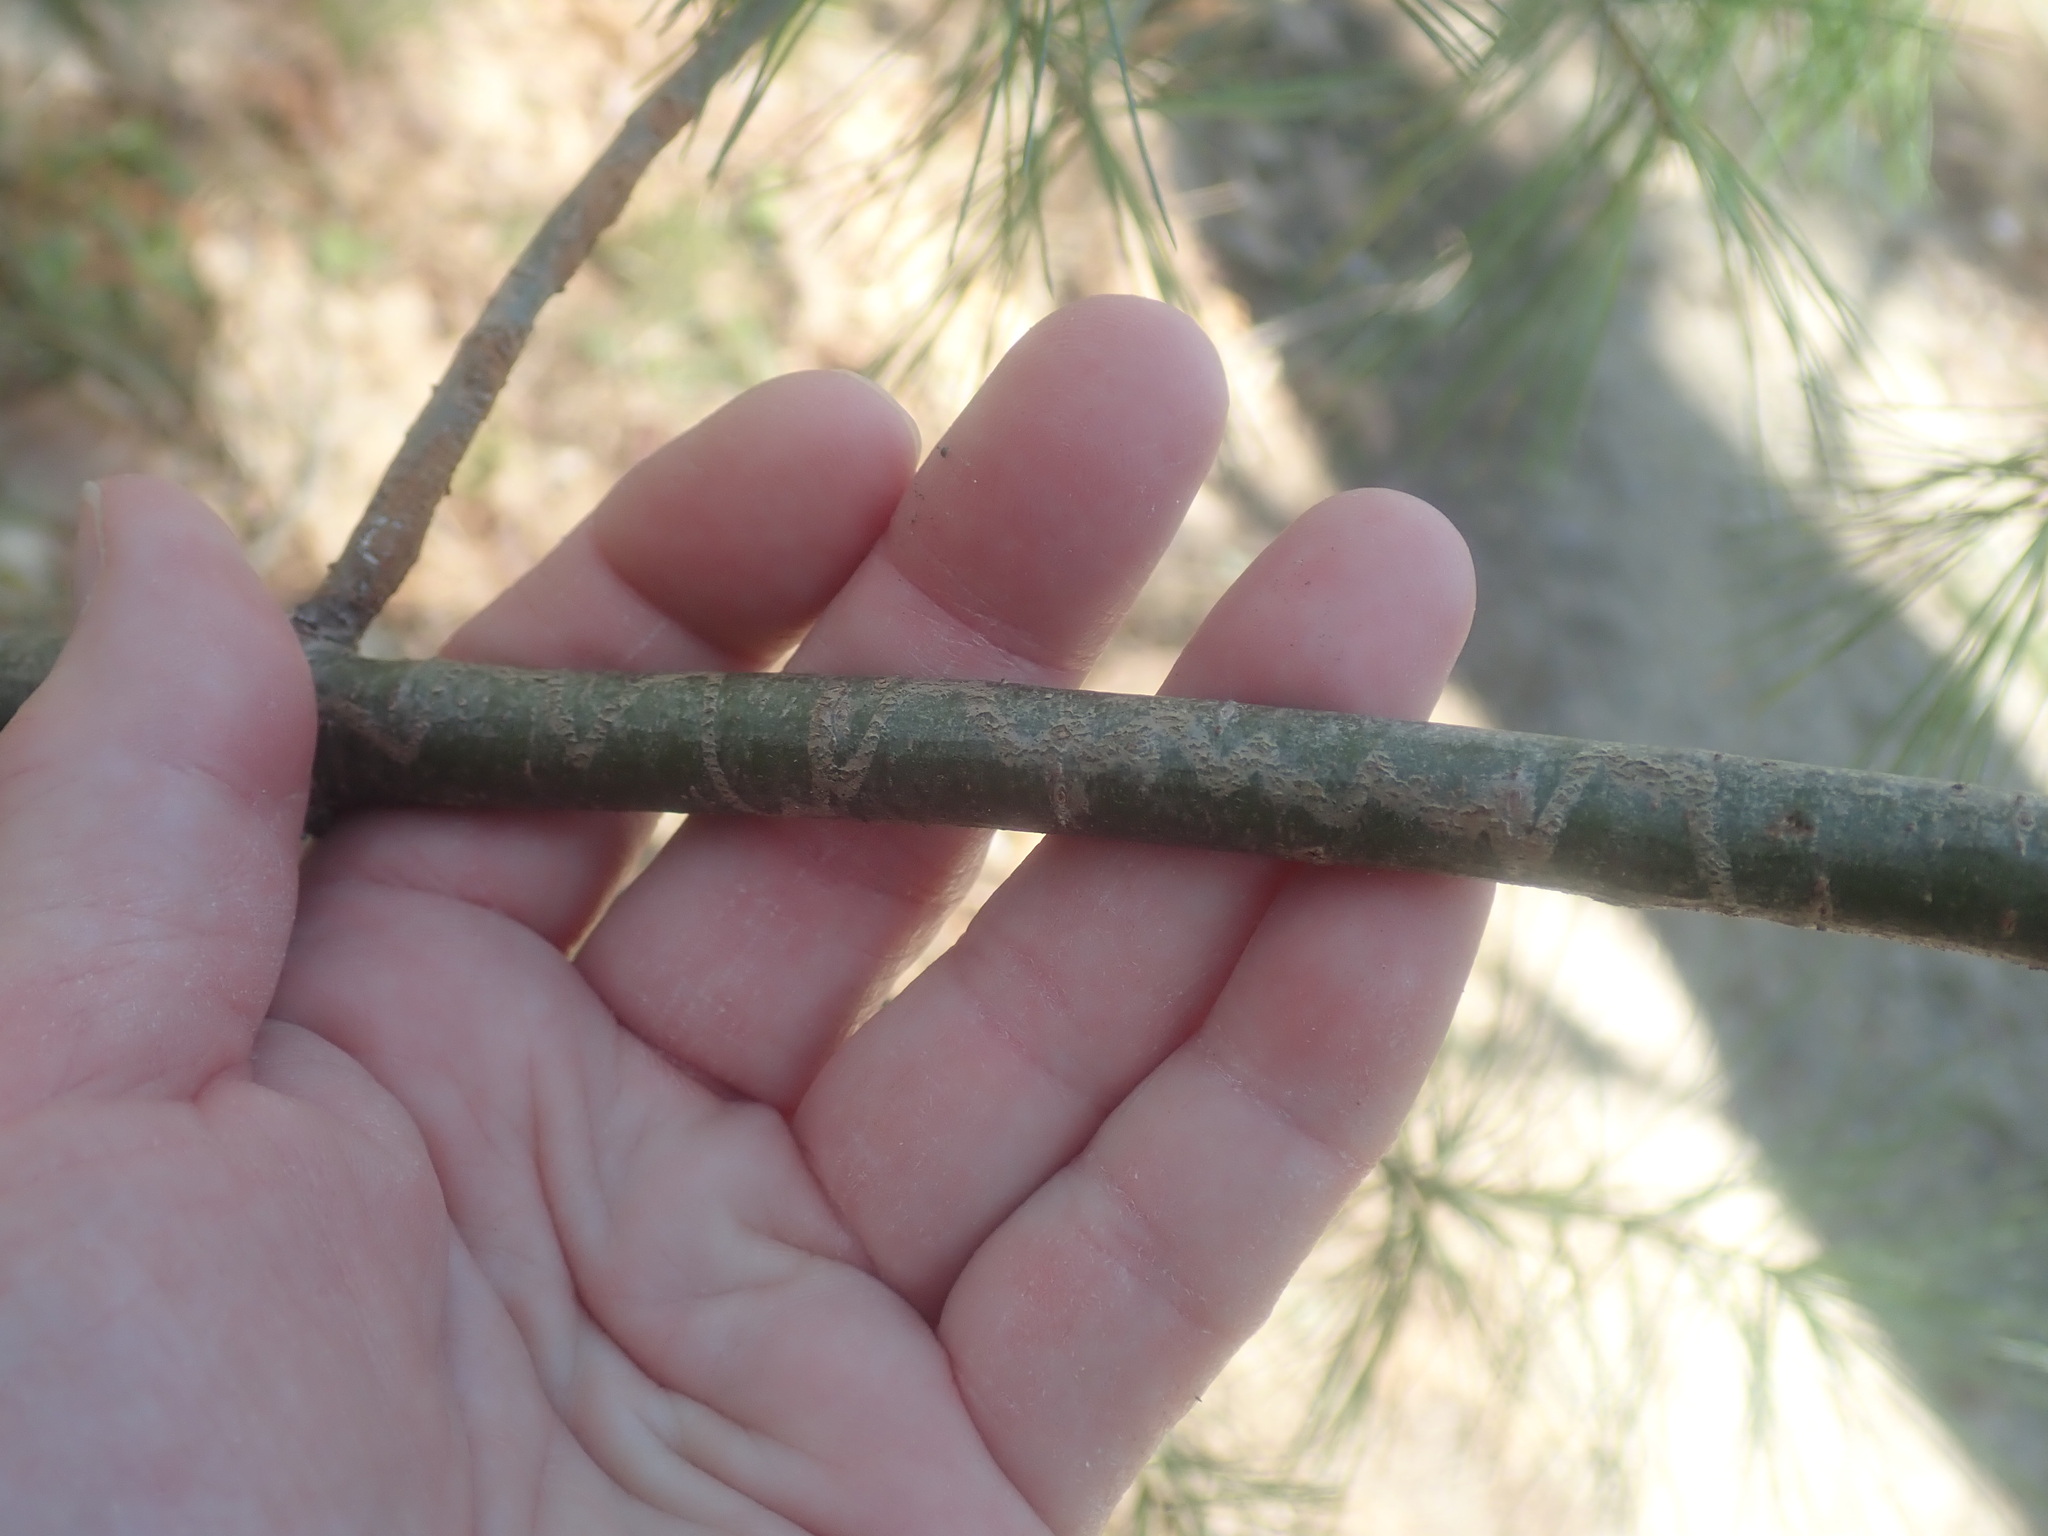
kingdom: Animalia
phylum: Arthropoda
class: Insecta
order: Lepidoptera
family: Gracillariidae
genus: Marmara
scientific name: Marmara fasciella
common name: White pine barkminer moth
